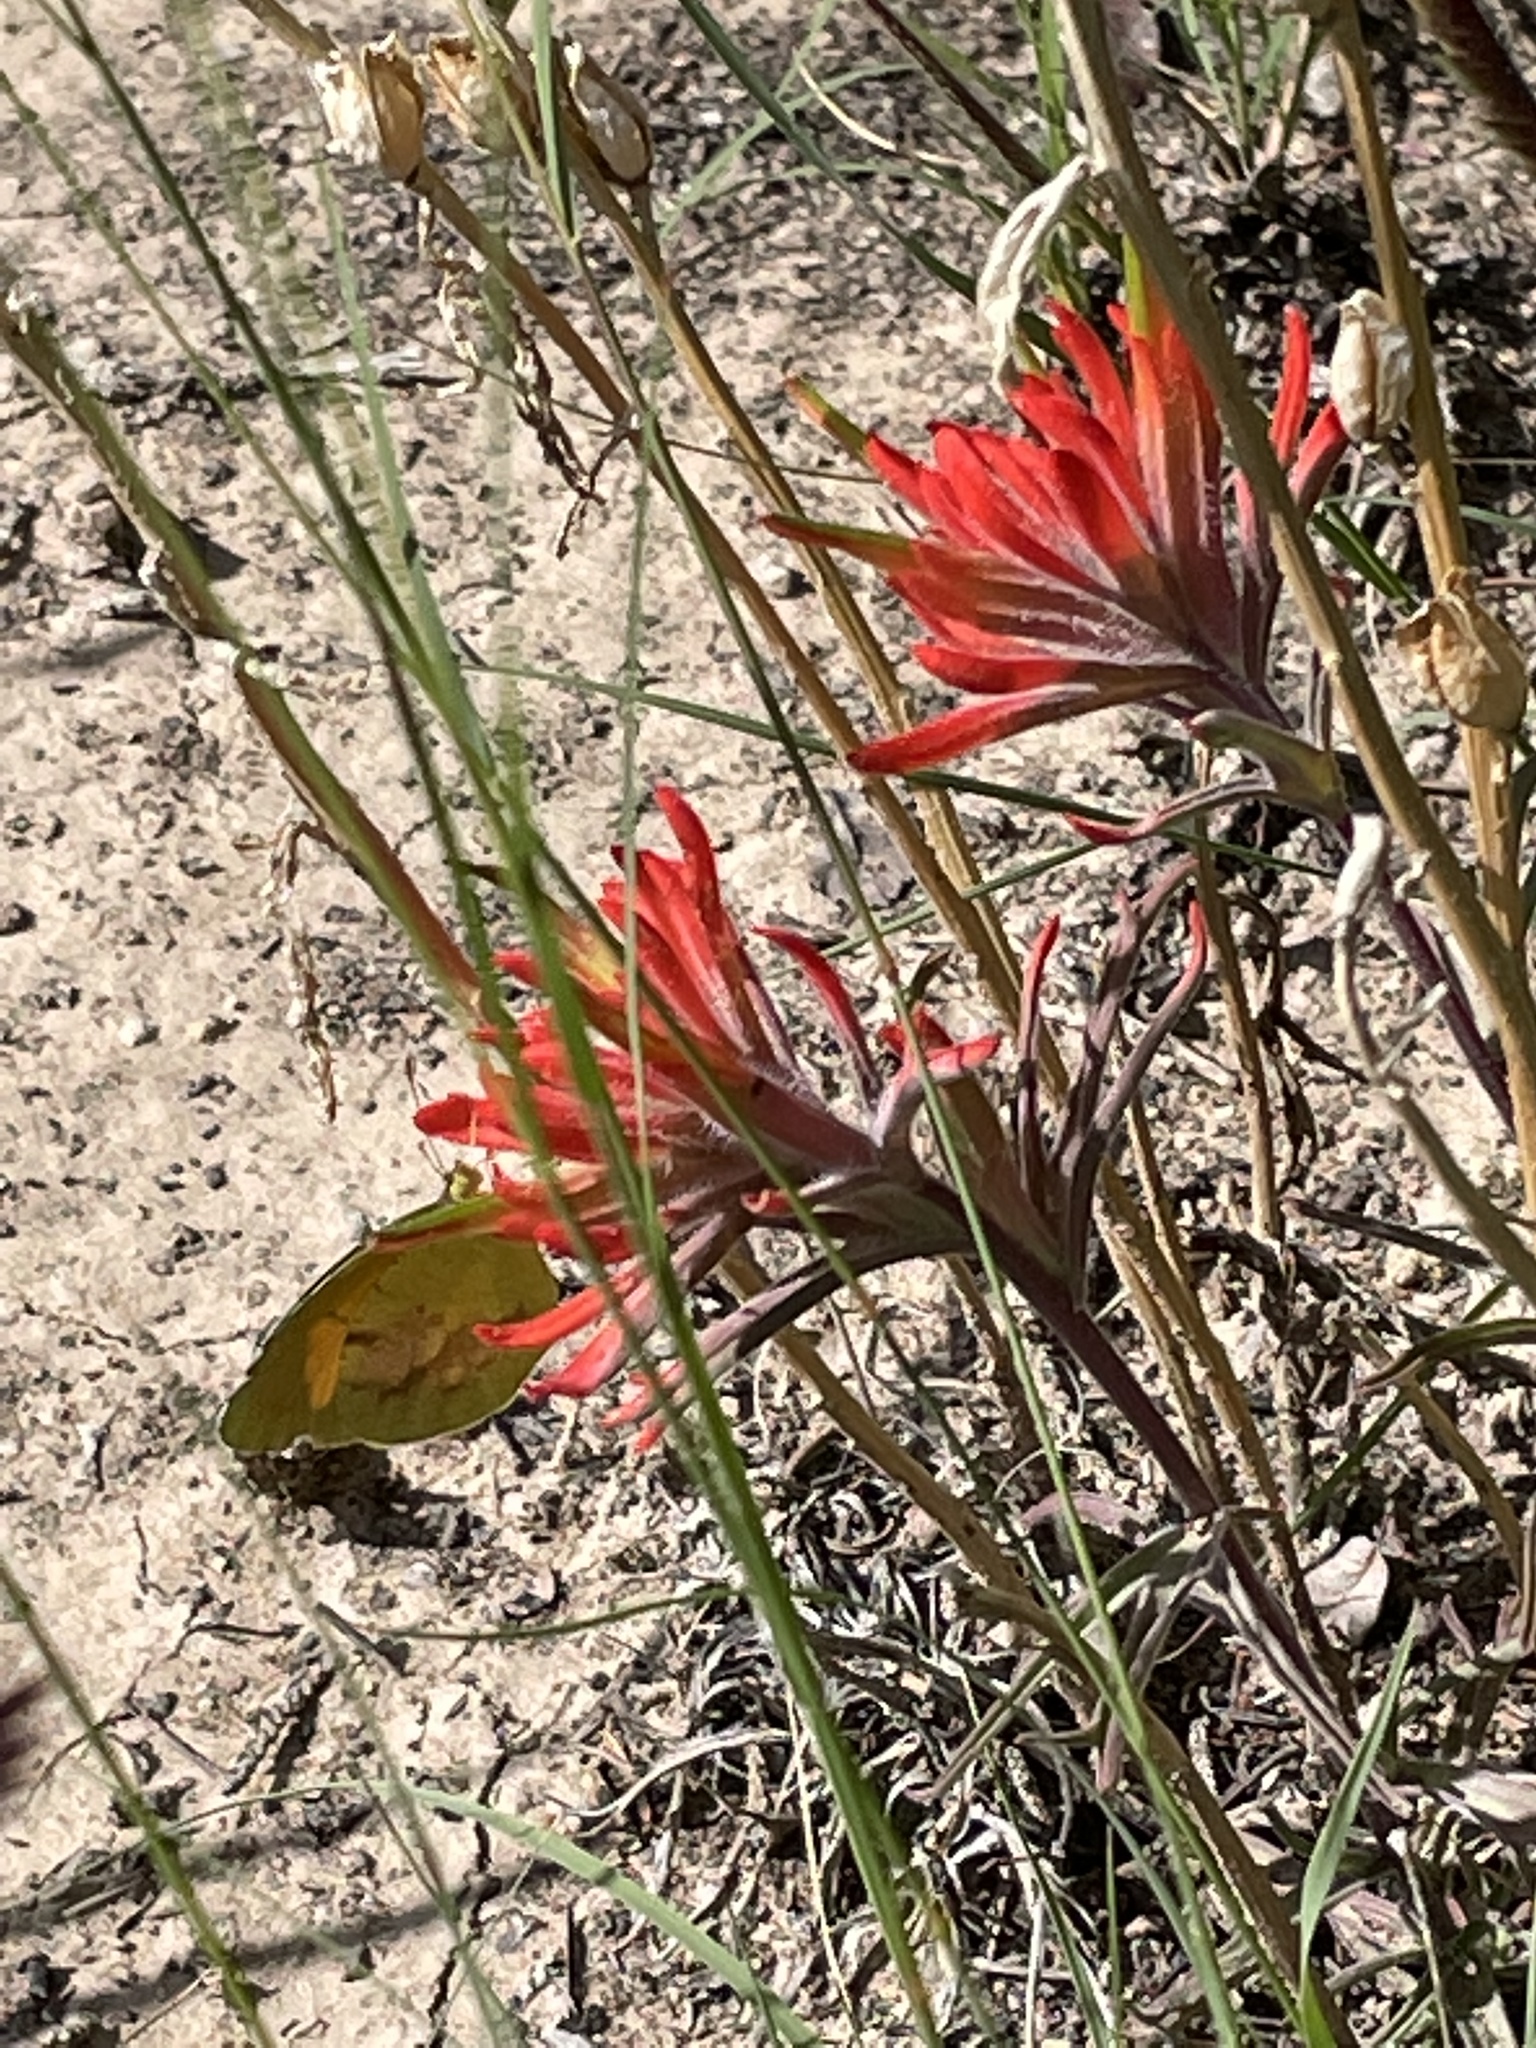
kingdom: Animalia
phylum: Arthropoda
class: Insecta
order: Lepidoptera
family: Pieridae
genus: Abaeis
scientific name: Abaeis nicippe
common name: Sleepy orange
